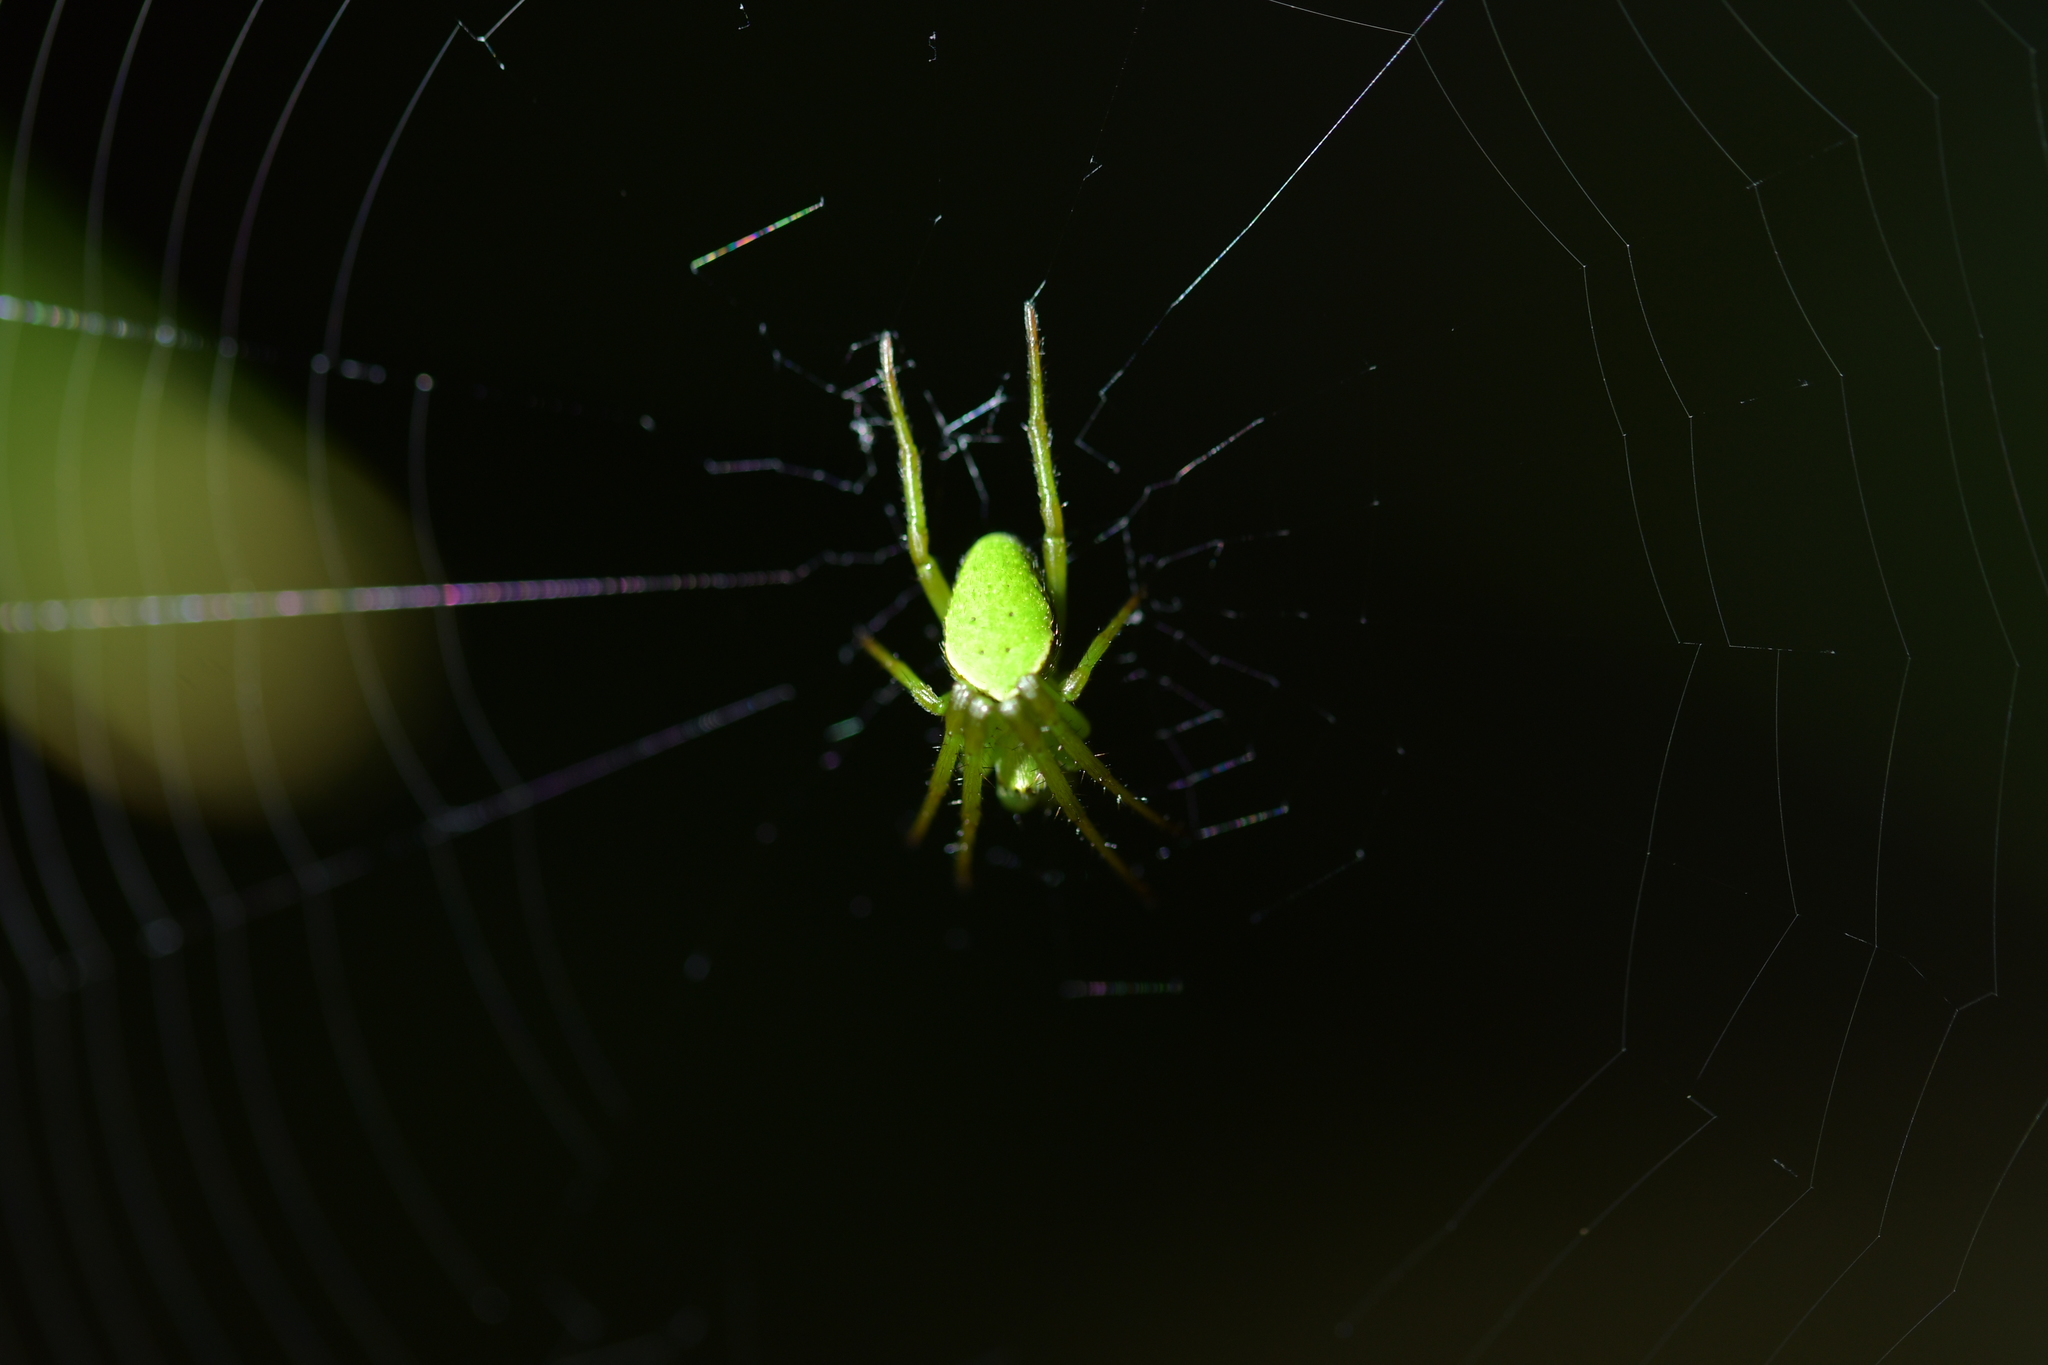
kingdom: Animalia
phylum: Arthropoda
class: Arachnida
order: Araneae
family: Araneidae
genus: Colaranea
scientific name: Colaranea viriditas
